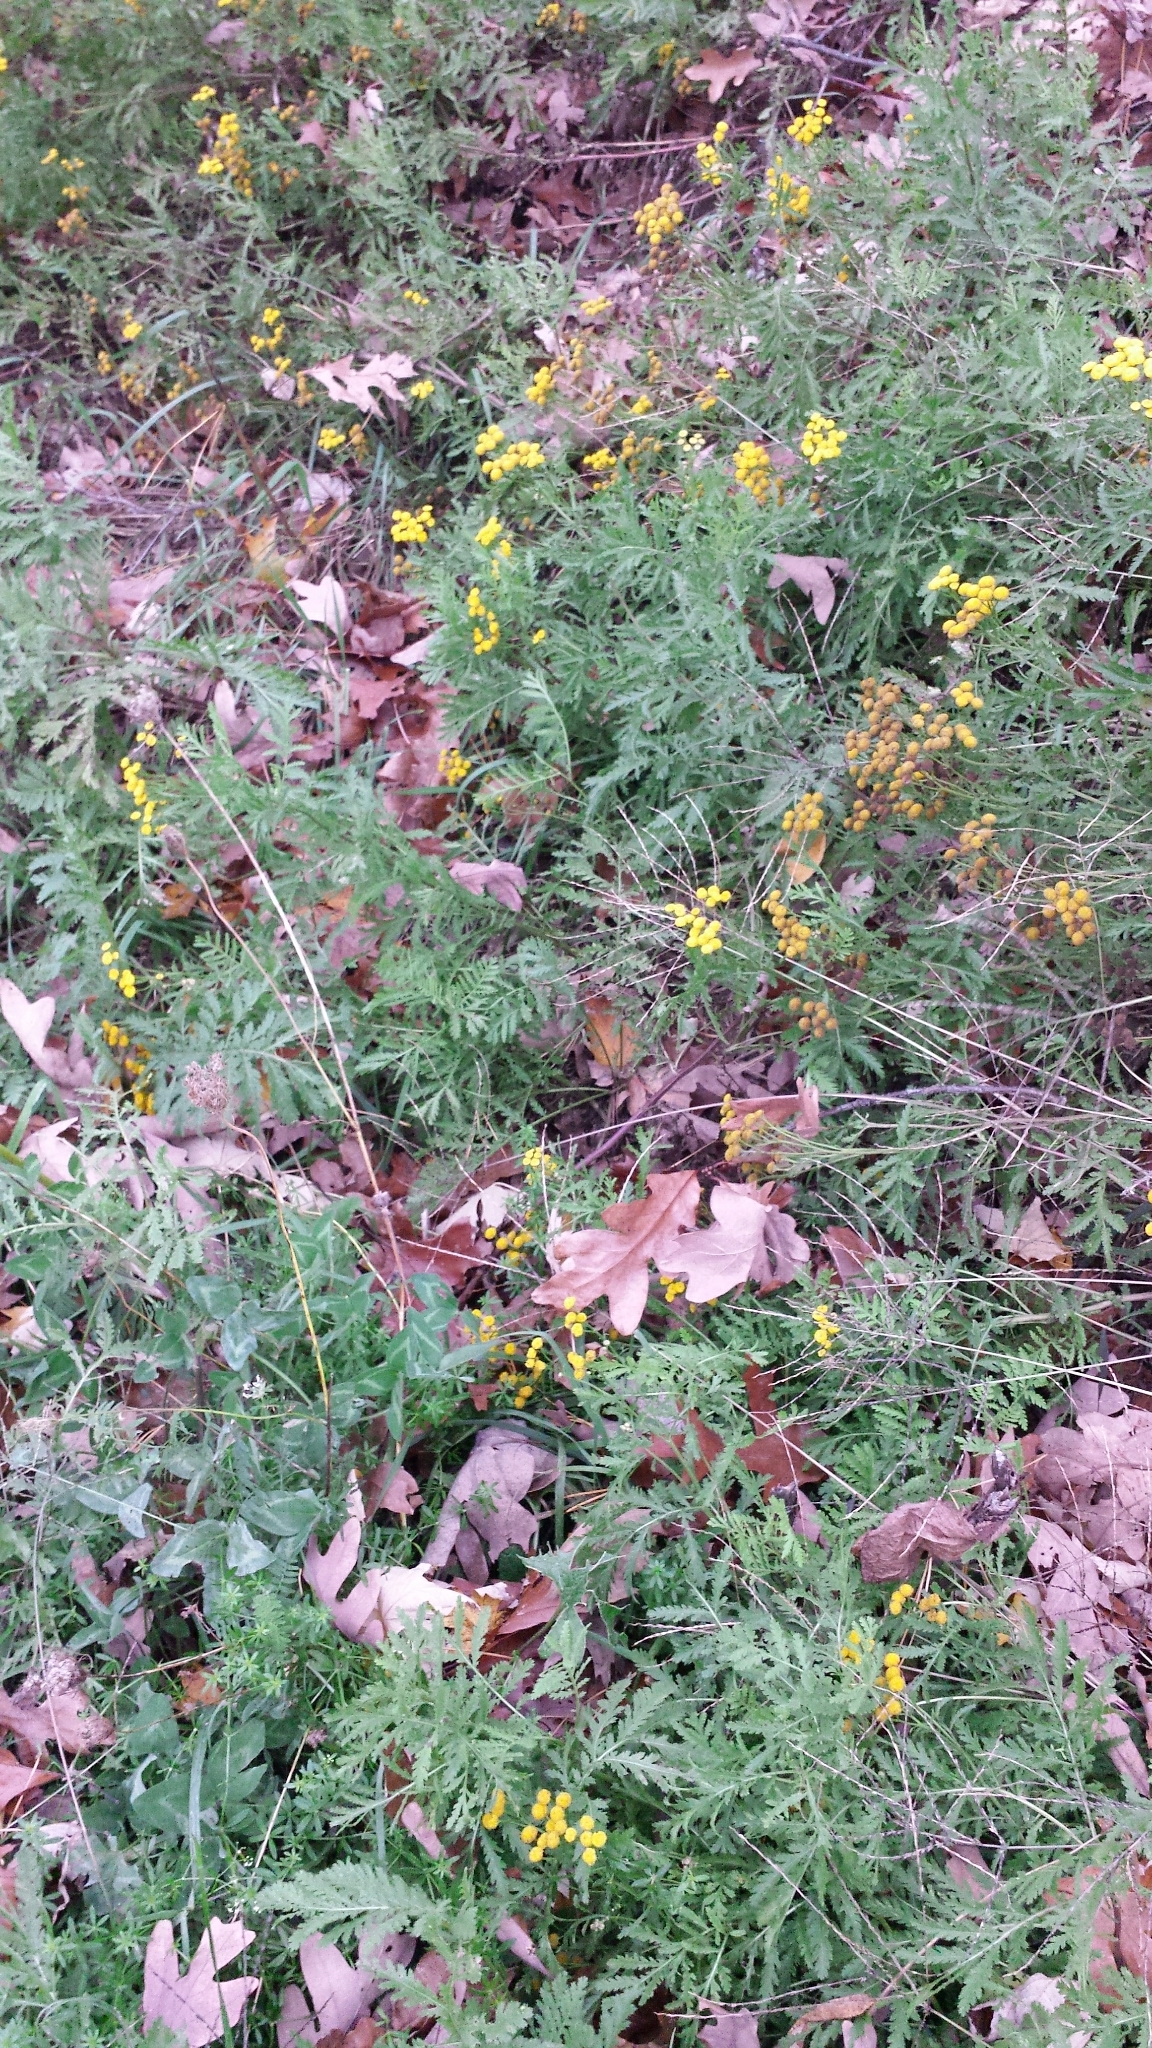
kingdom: Plantae
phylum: Tracheophyta
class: Magnoliopsida
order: Asterales
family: Asteraceae
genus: Tanacetum
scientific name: Tanacetum vulgare
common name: Common tansy
